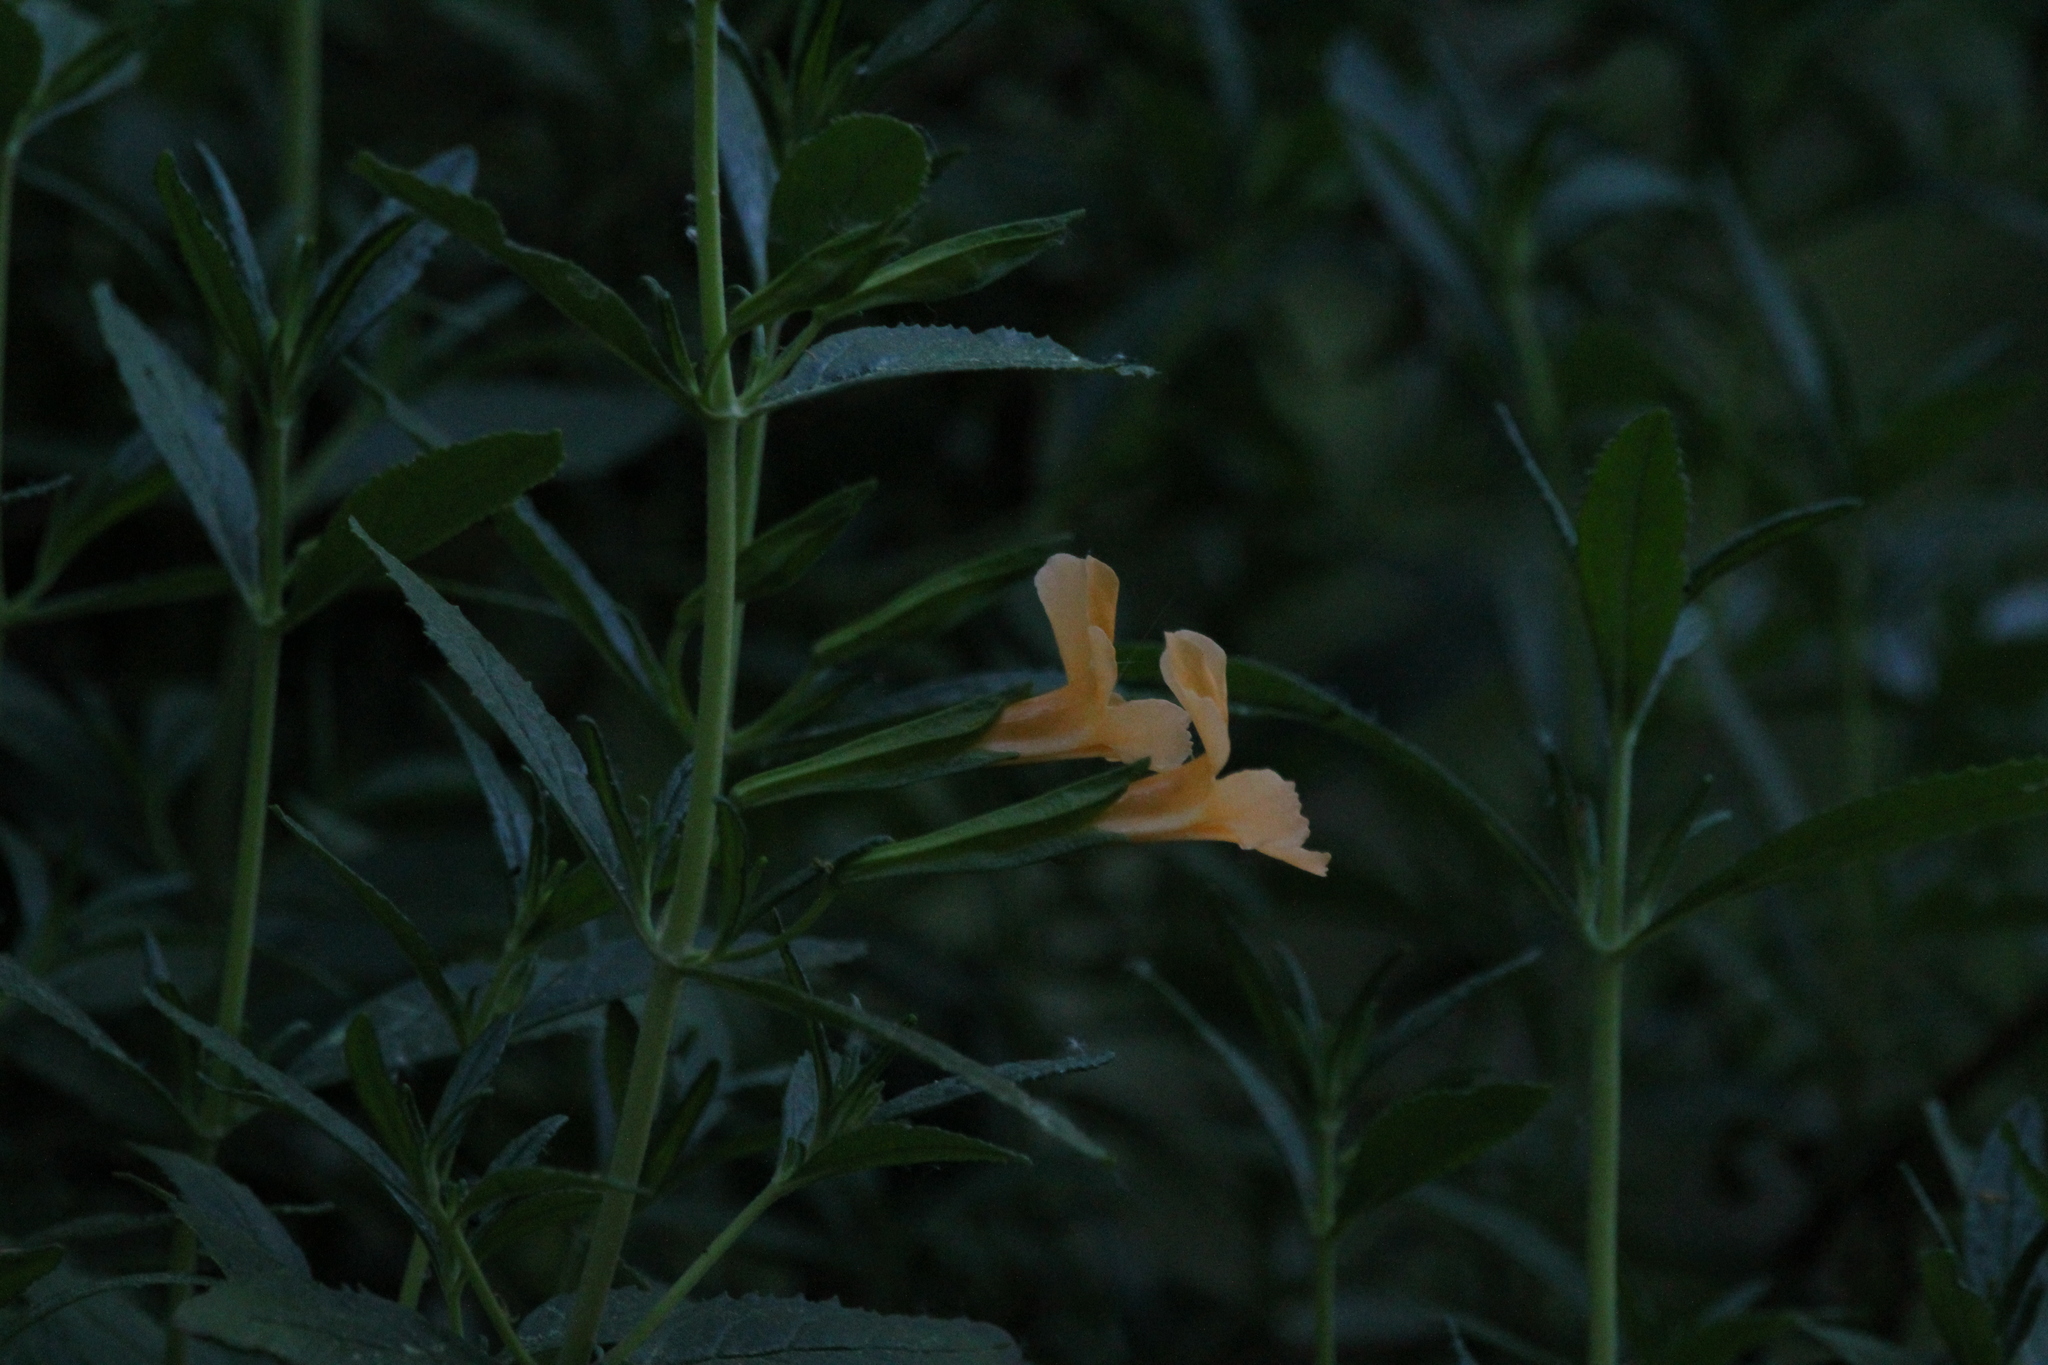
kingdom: Plantae
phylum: Tracheophyta
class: Magnoliopsida
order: Lamiales
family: Phrymaceae
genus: Diplacus
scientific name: Diplacus aurantiacus
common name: Bush monkey-flower
